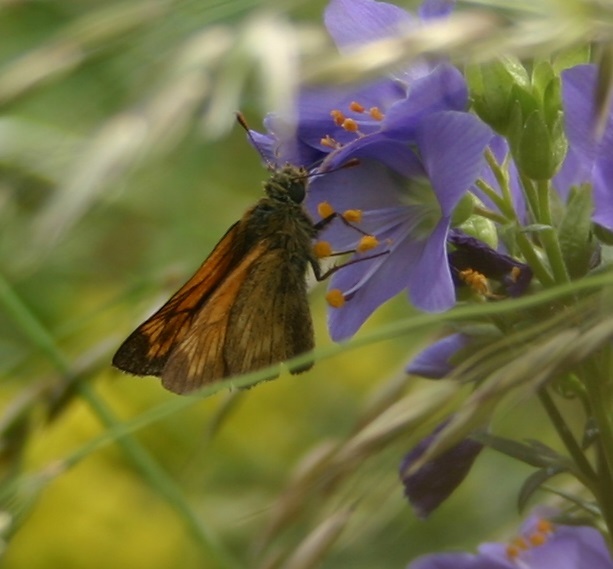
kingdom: Animalia
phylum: Arthropoda
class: Insecta
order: Lepidoptera
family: Hesperiidae
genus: Ochlodes
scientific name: Ochlodes venata
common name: Large skipper
